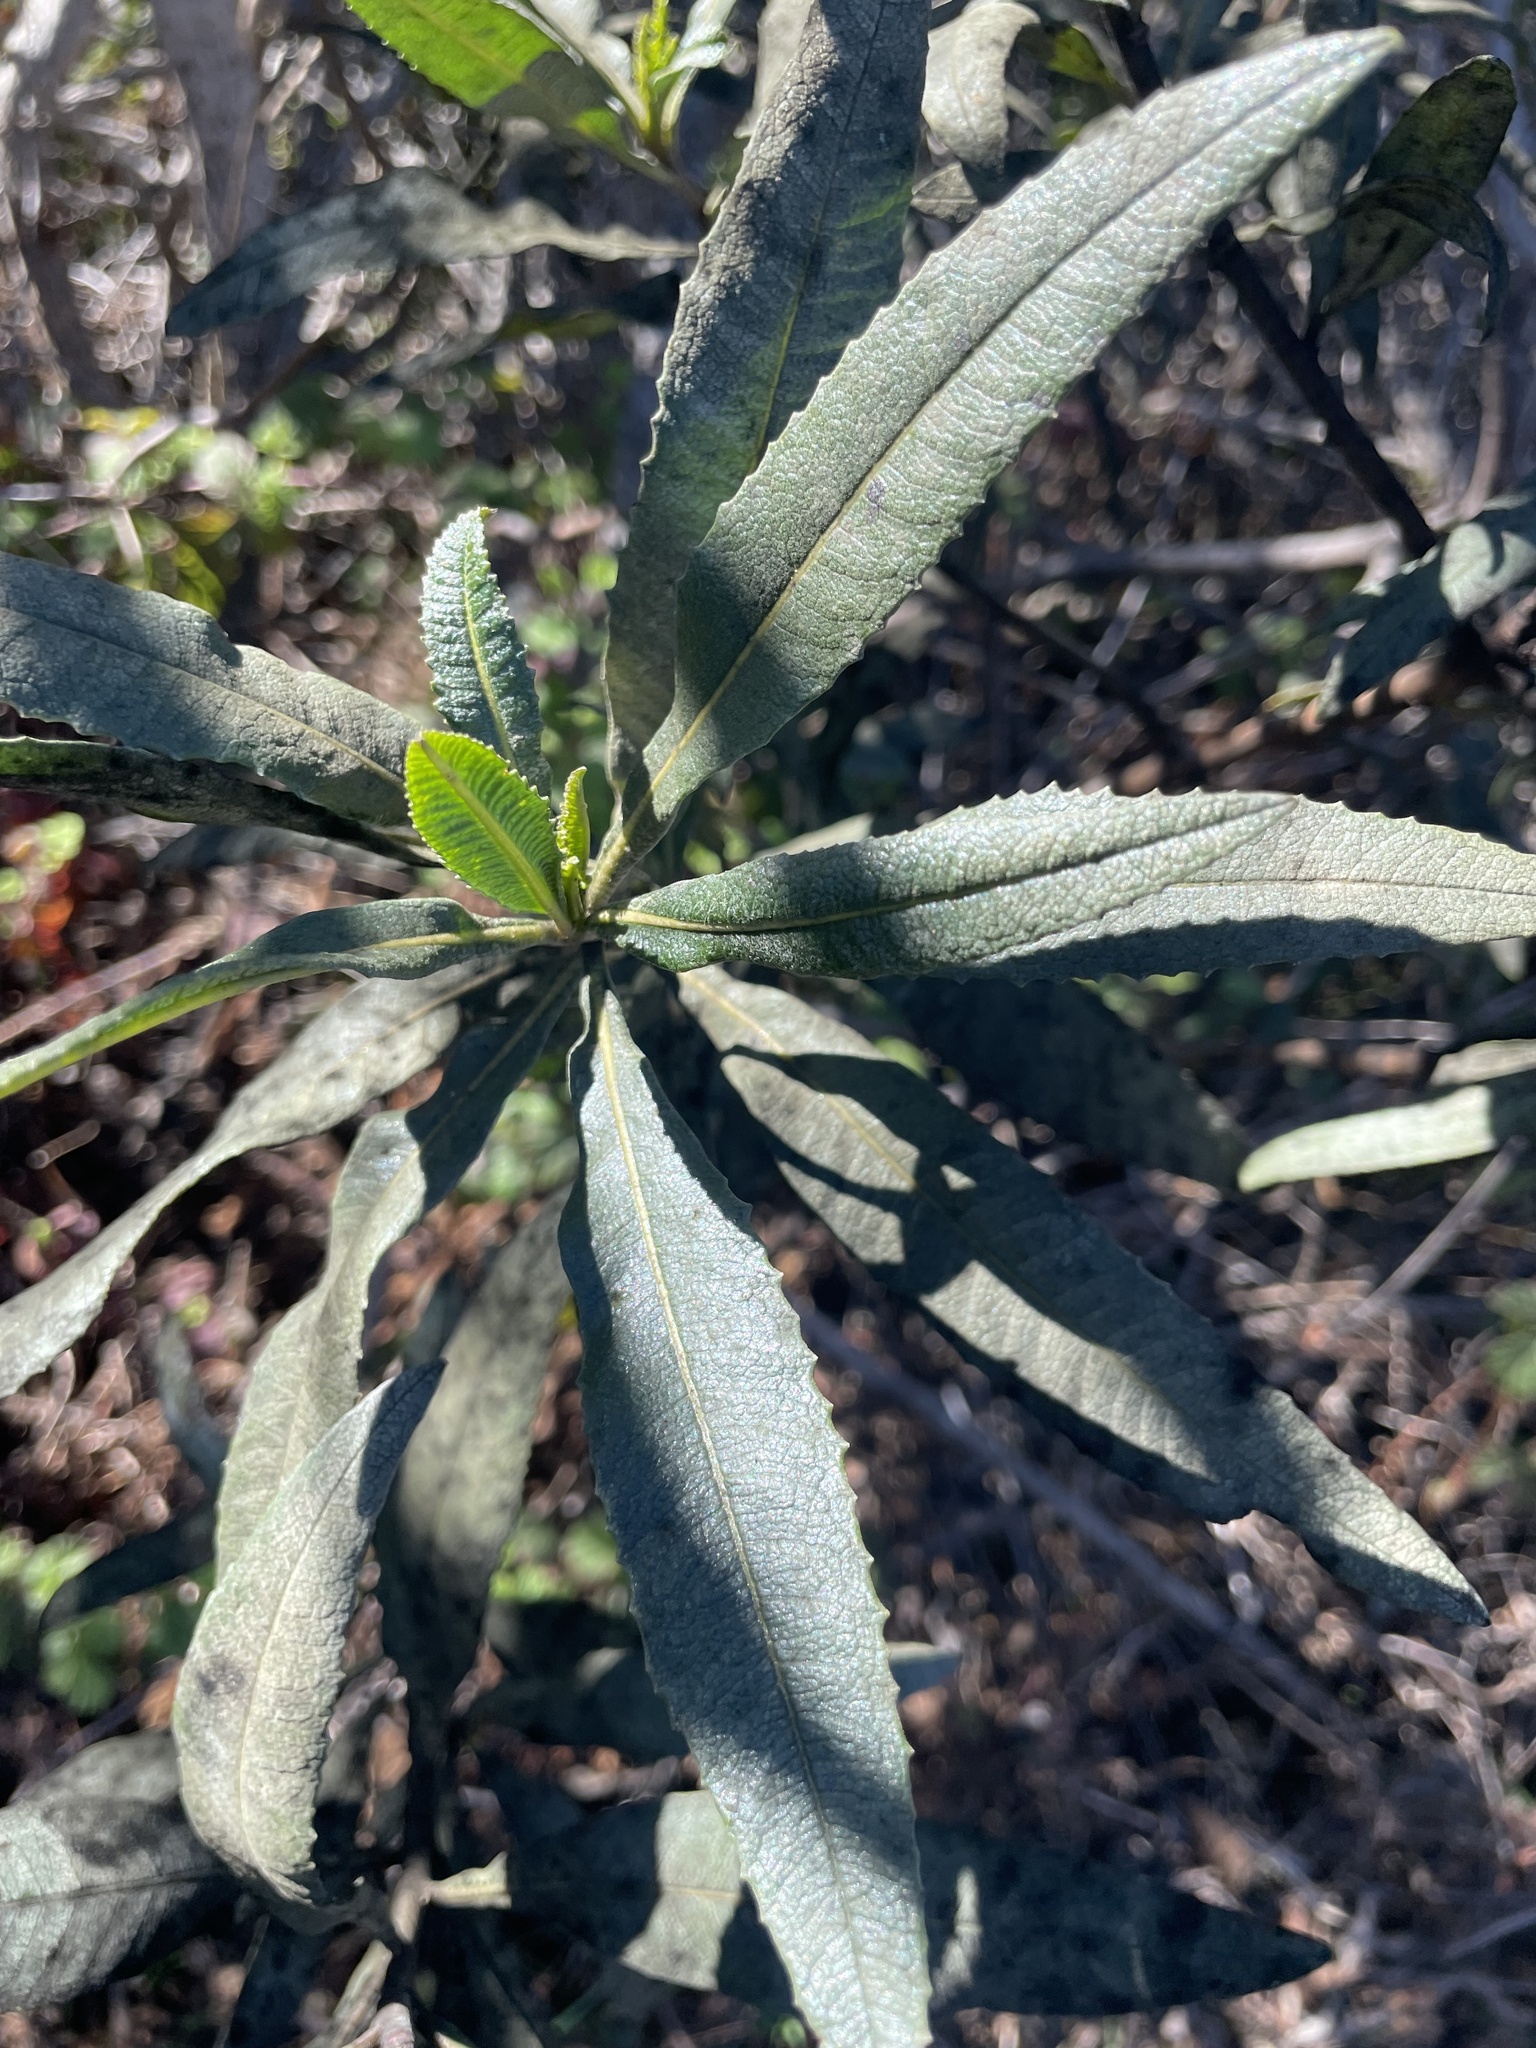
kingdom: Plantae
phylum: Tracheophyta
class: Magnoliopsida
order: Boraginales
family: Namaceae
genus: Eriodictyon
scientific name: Eriodictyon californicum
